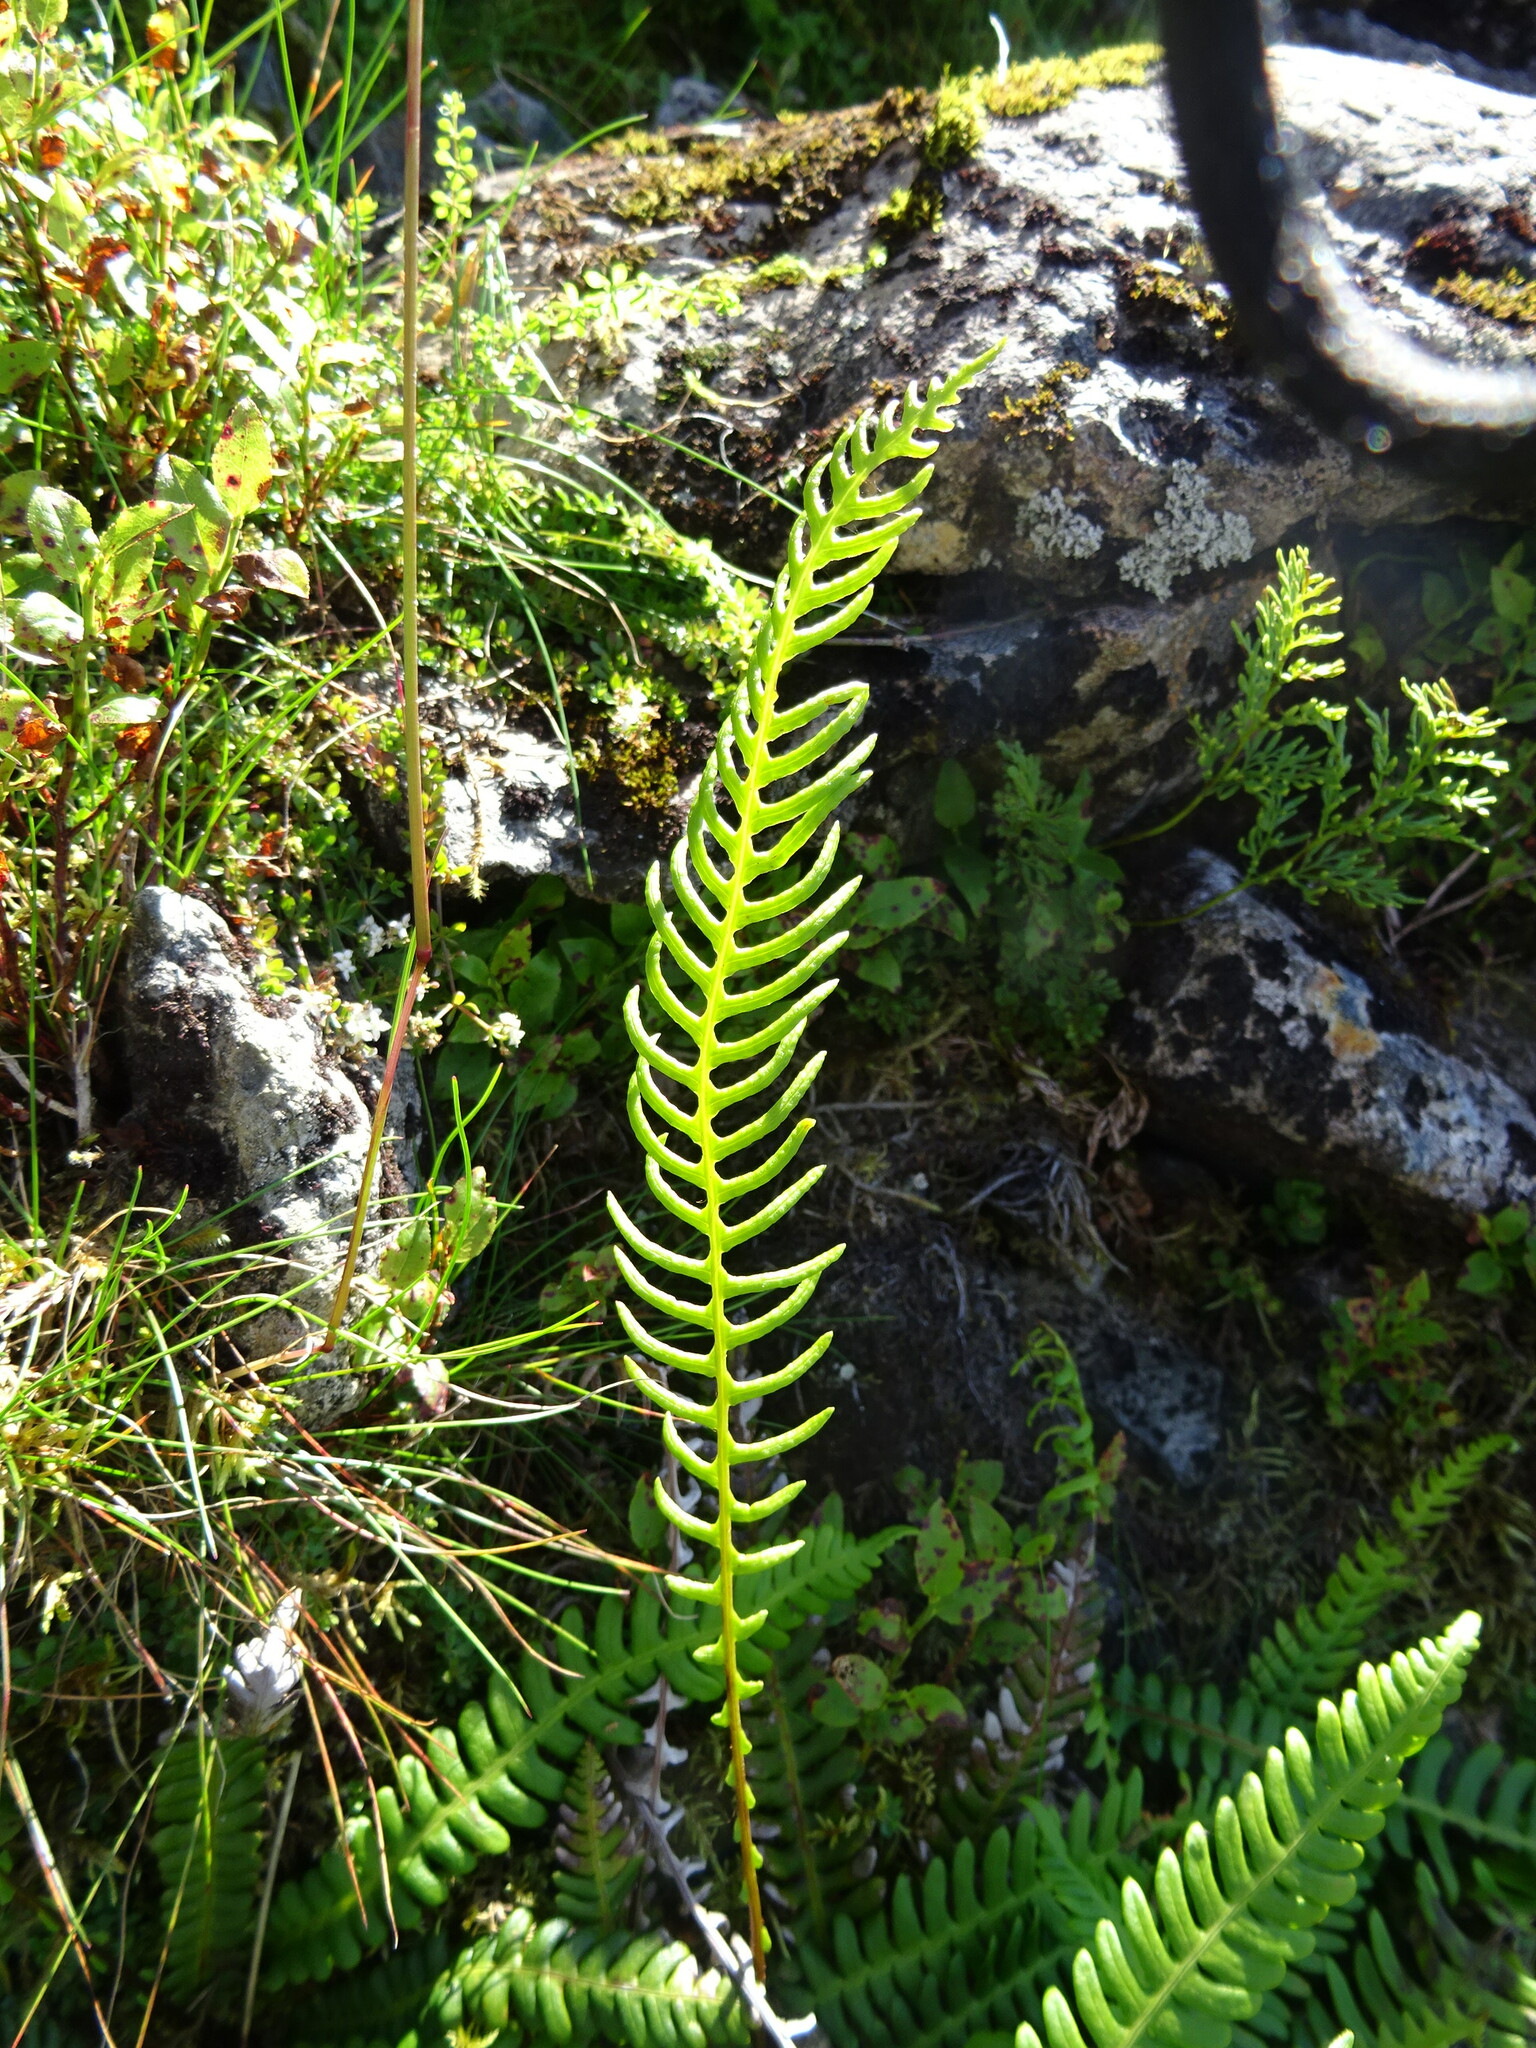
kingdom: Plantae
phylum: Tracheophyta
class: Polypodiopsida
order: Polypodiales
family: Blechnaceae
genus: Struthiopteris
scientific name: Struthiopteris spicant
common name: Deer fern
